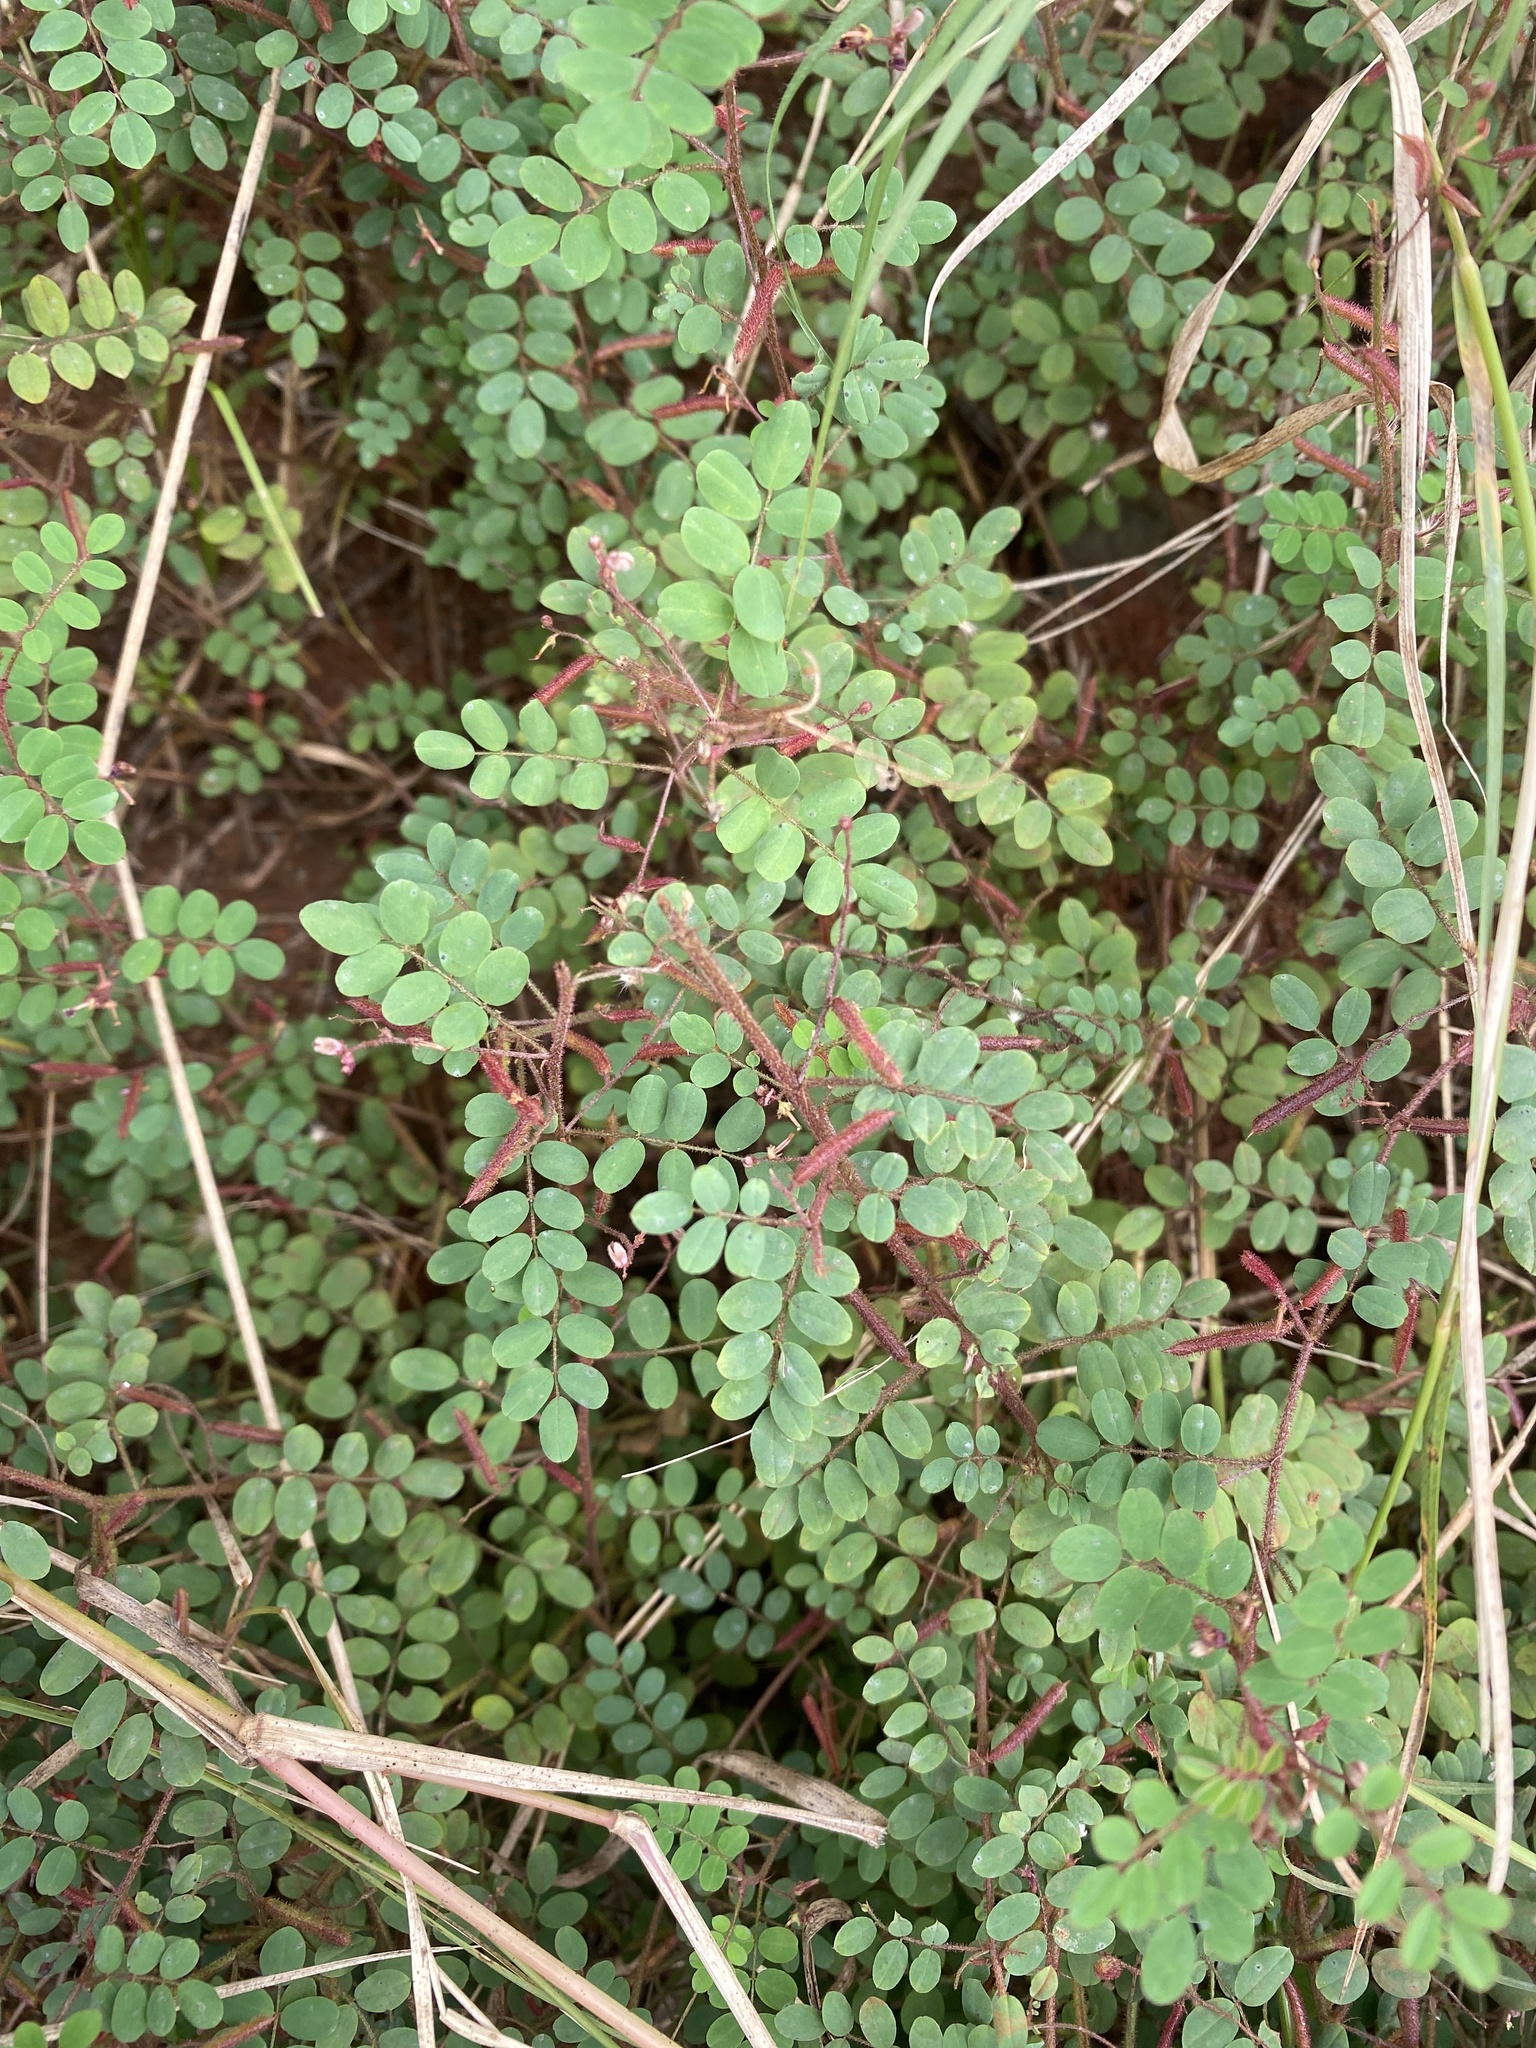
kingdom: Plantae
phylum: Tracheophyta
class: Magnoliopsida
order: Fabales
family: Fabaceae
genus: Indigofera
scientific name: Indigofera adenoides
